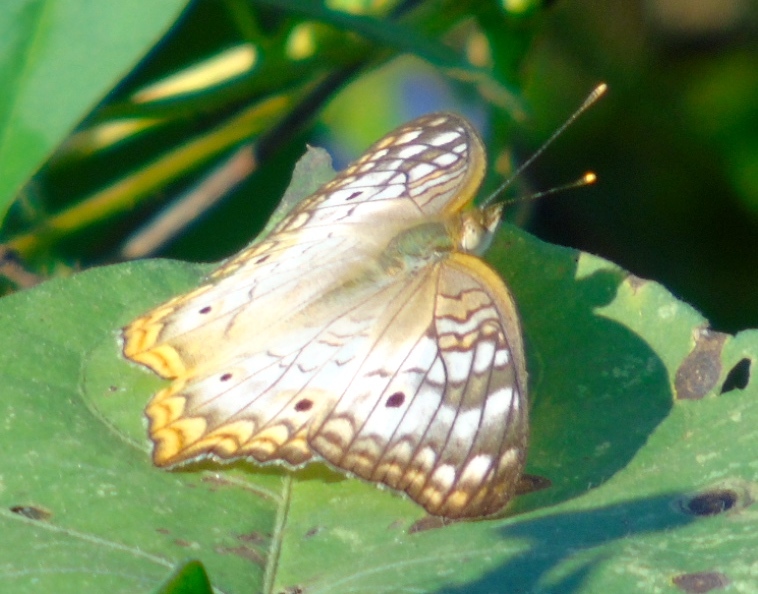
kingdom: Animalia
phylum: Arthropoda
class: Insecta
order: Lepidoptera
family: Nymphalidae
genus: Anartia
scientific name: Anartia jatrophae
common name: White peacock
